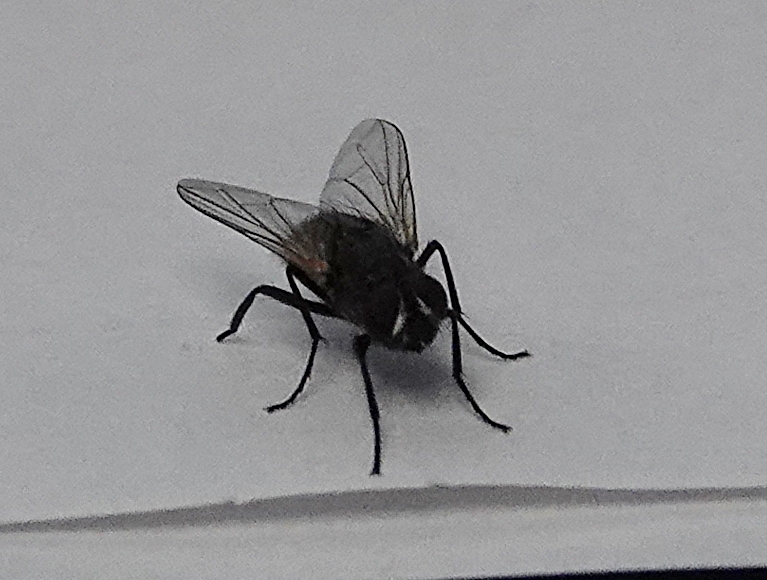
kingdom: Animalia
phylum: Arthropoda
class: Insecta
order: Diptera
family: Muscidae
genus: Musca
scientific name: Musca domestica
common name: House fly
